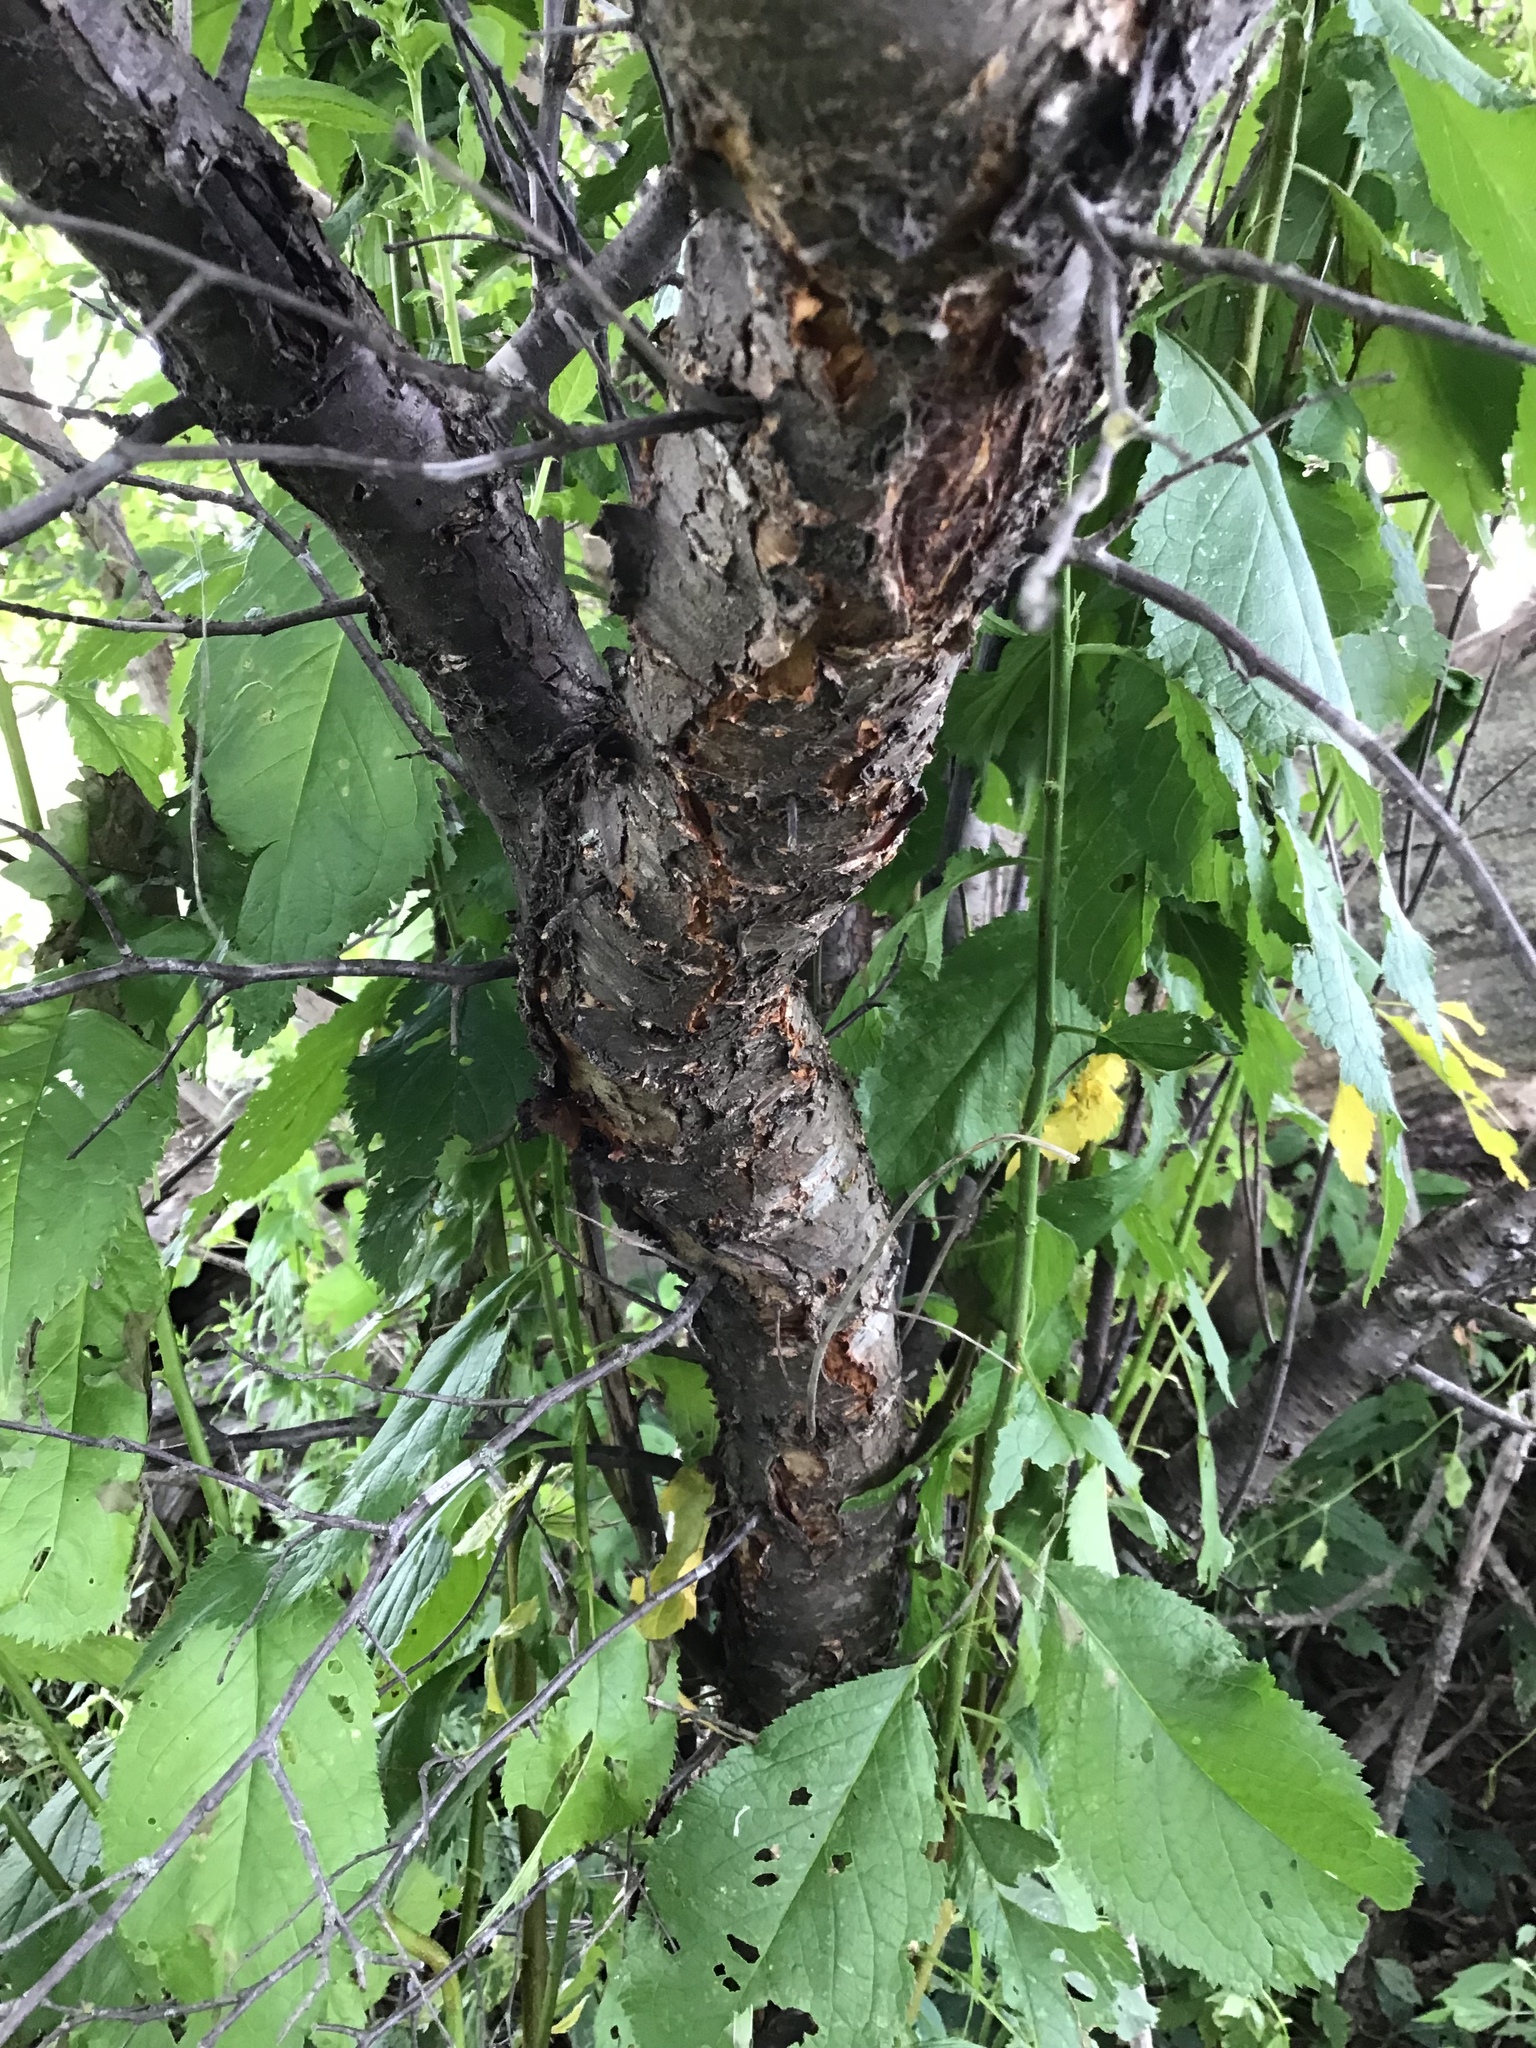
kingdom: Plantae
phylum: Tracheophyta
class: Magnoliopsida
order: Rosales
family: Rosaceae
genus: Prunus
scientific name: Prunus americana
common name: American plum
